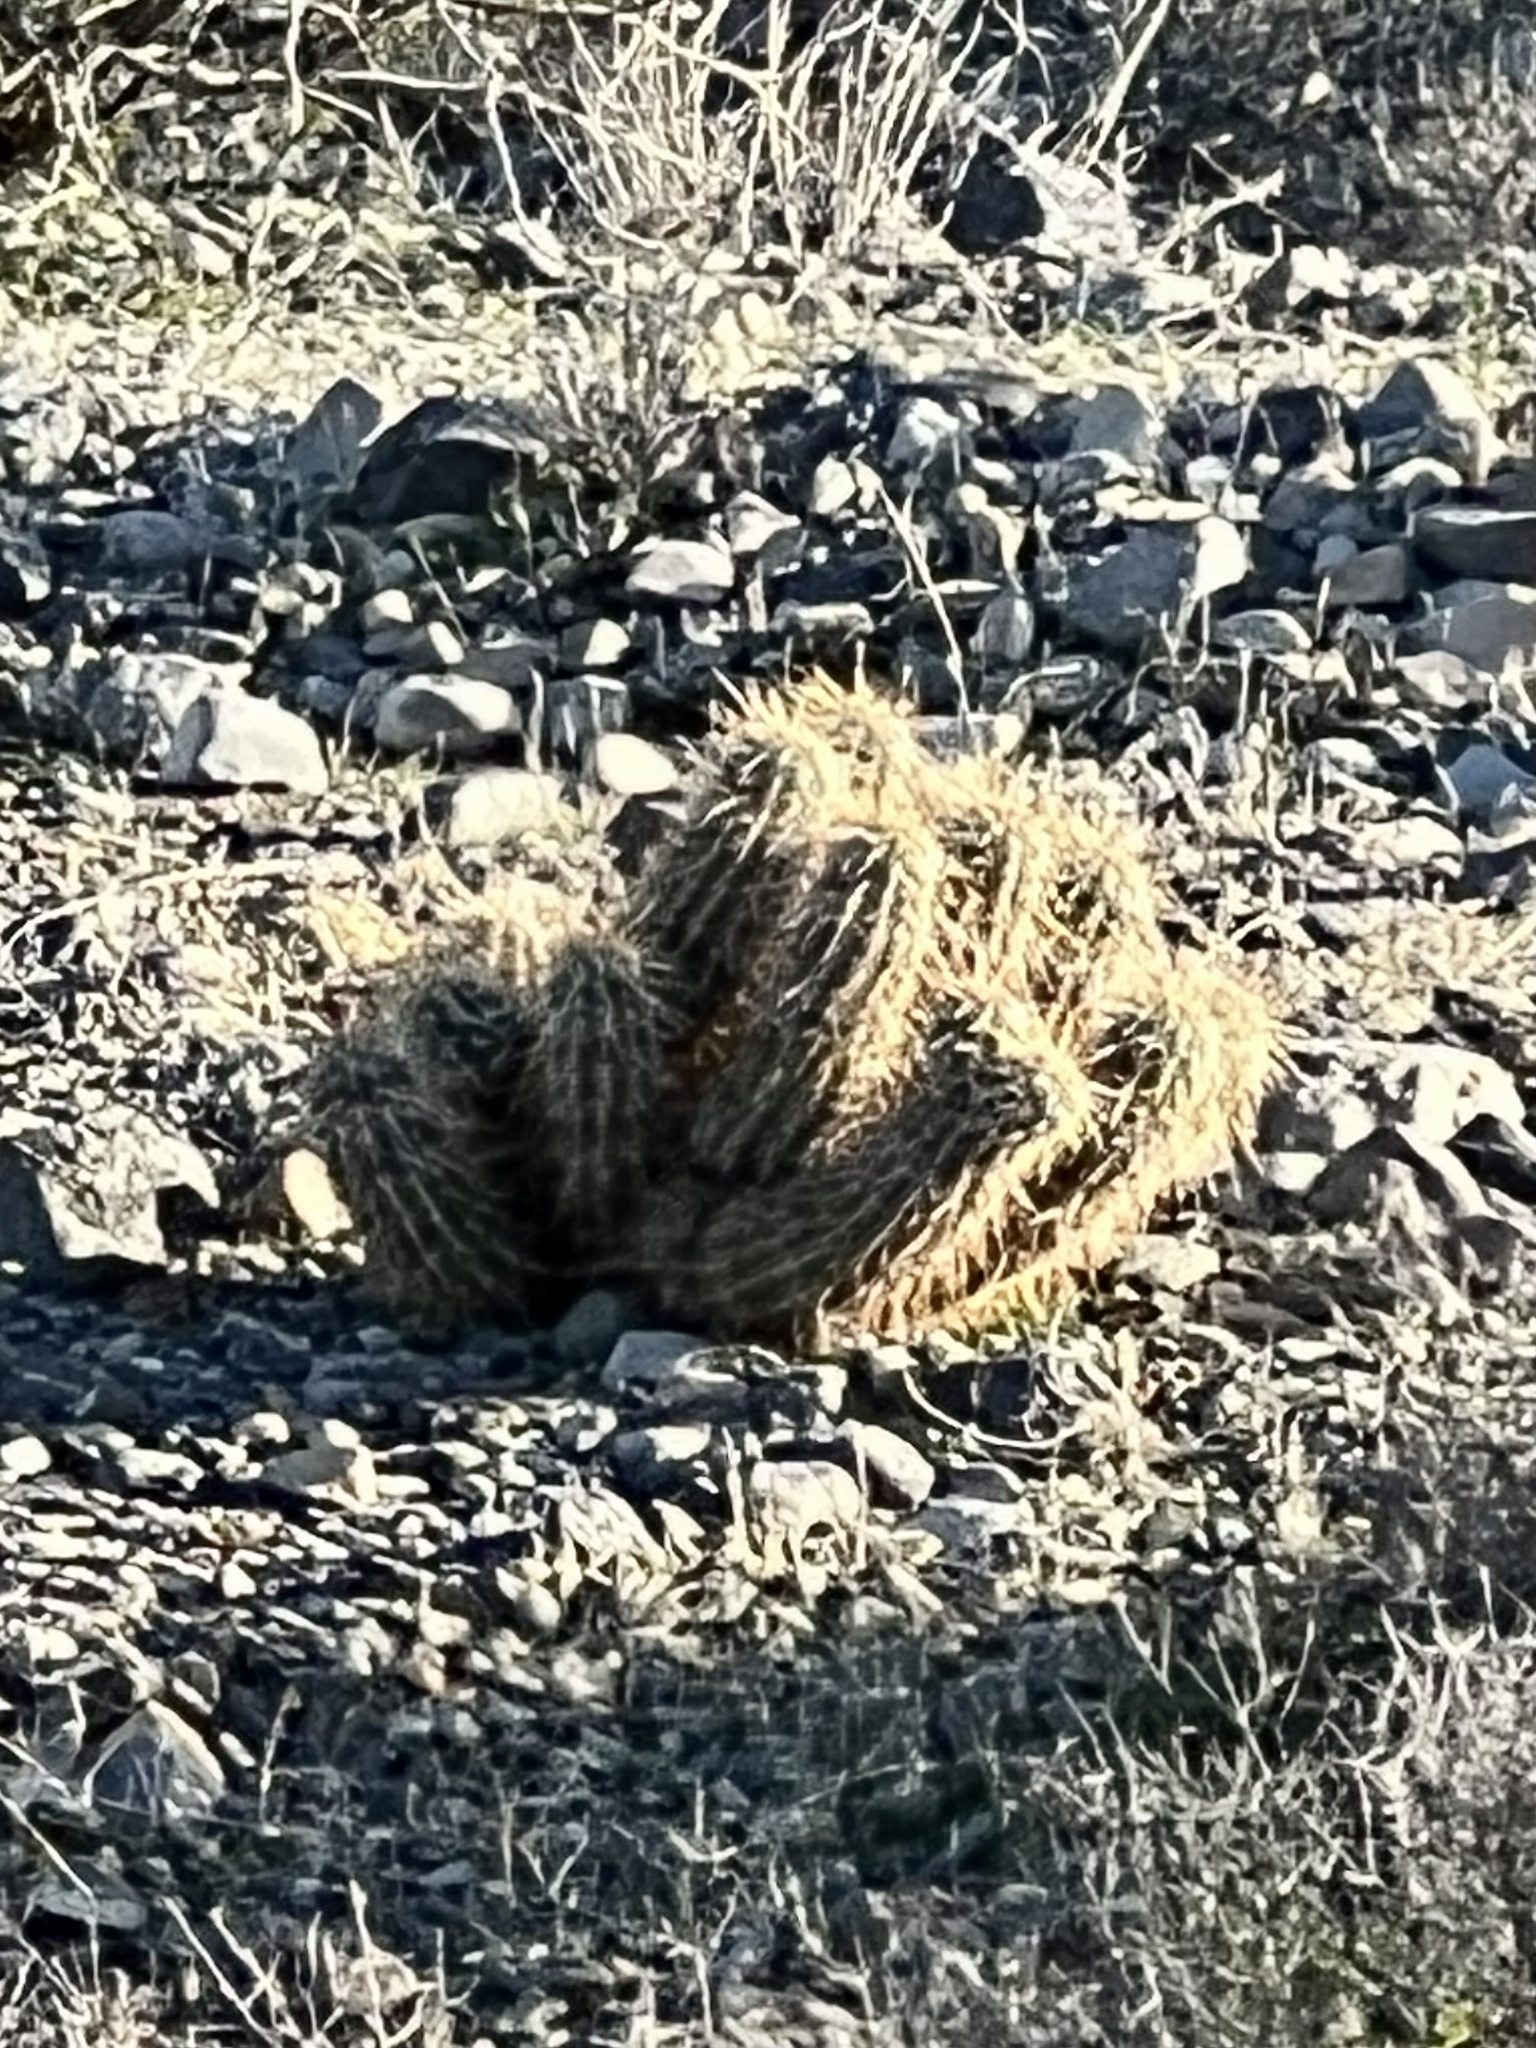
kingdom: Plantae
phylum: Tracheophyta
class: Magnoliopsida
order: Caryophyllales
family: Cactaceae
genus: Echinocereus
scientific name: Echinocereus engelmannii
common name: Engelmann's hedgehog cactus
